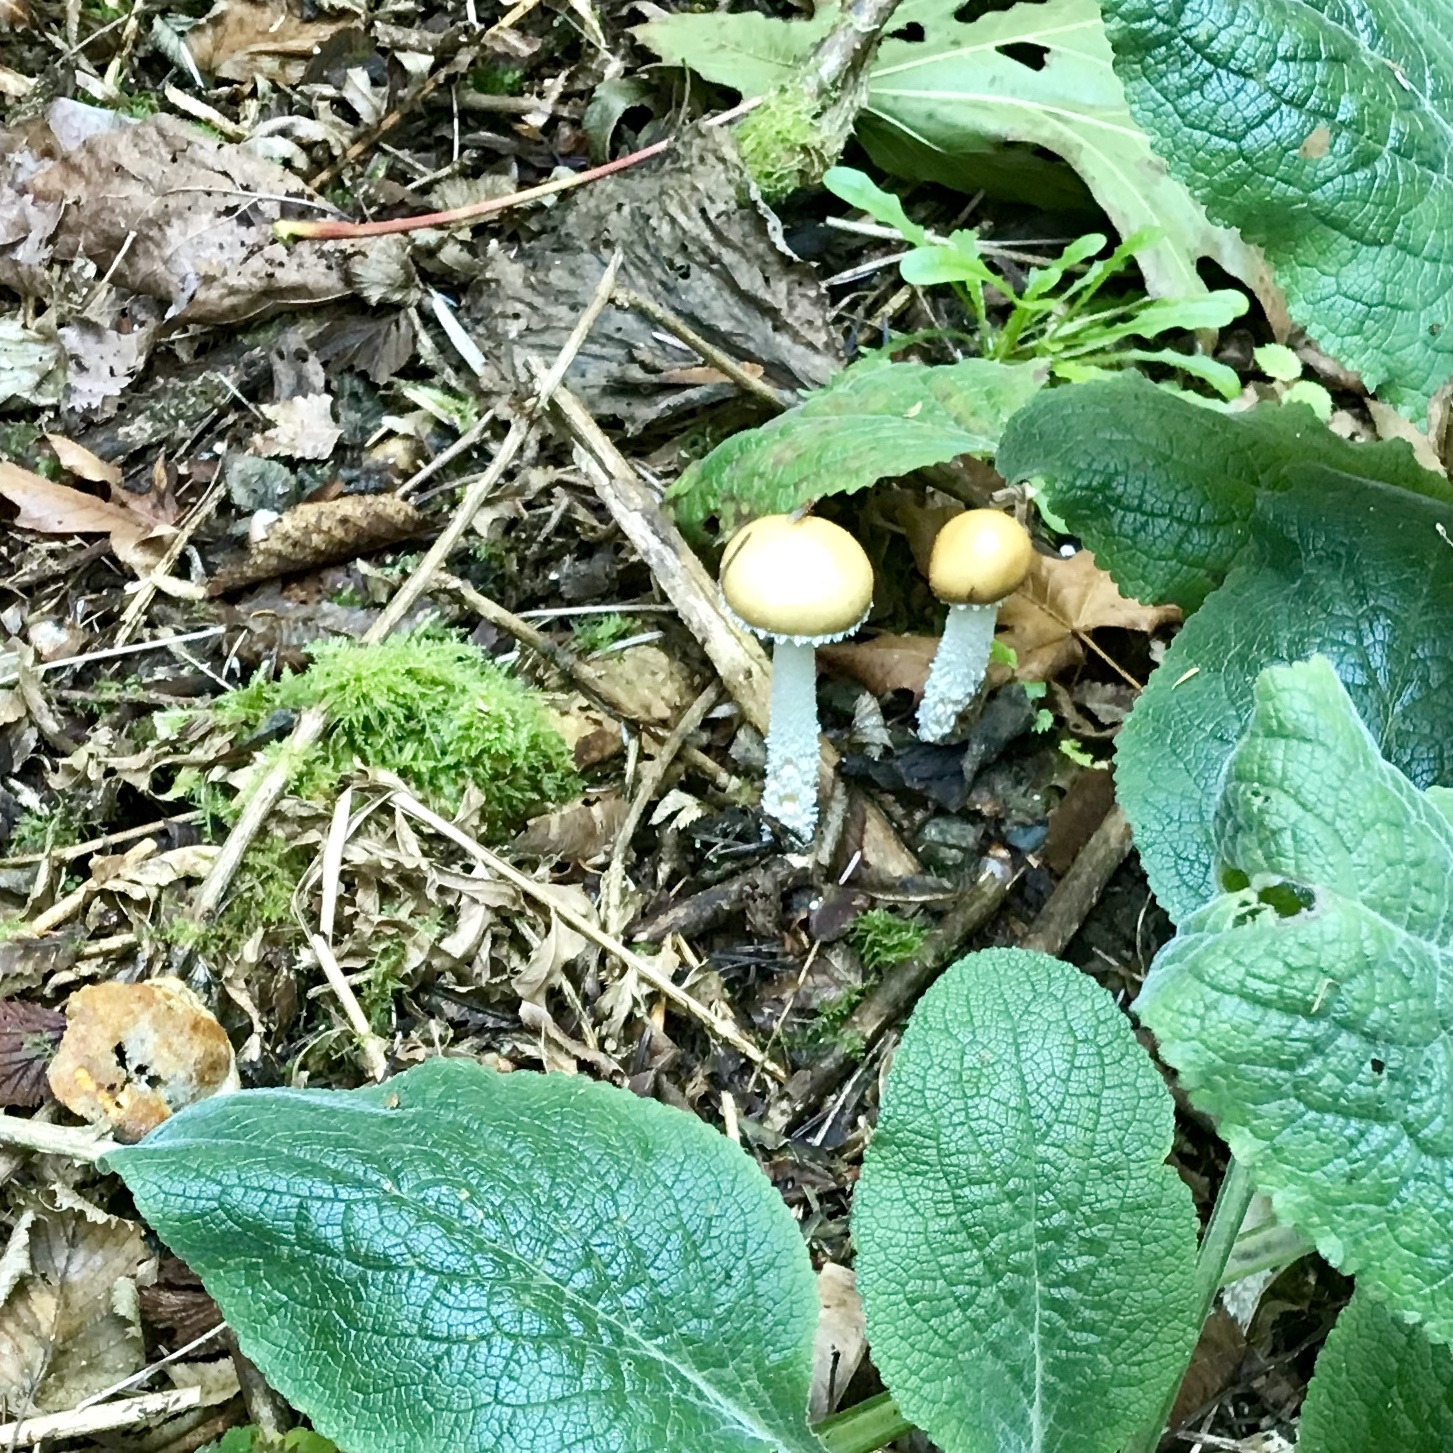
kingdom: Fungi
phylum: Basidiomycota
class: Agaricomycetes
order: Agaricales
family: Strophariaceae
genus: Stropharia
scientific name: Stropharia ambigua
